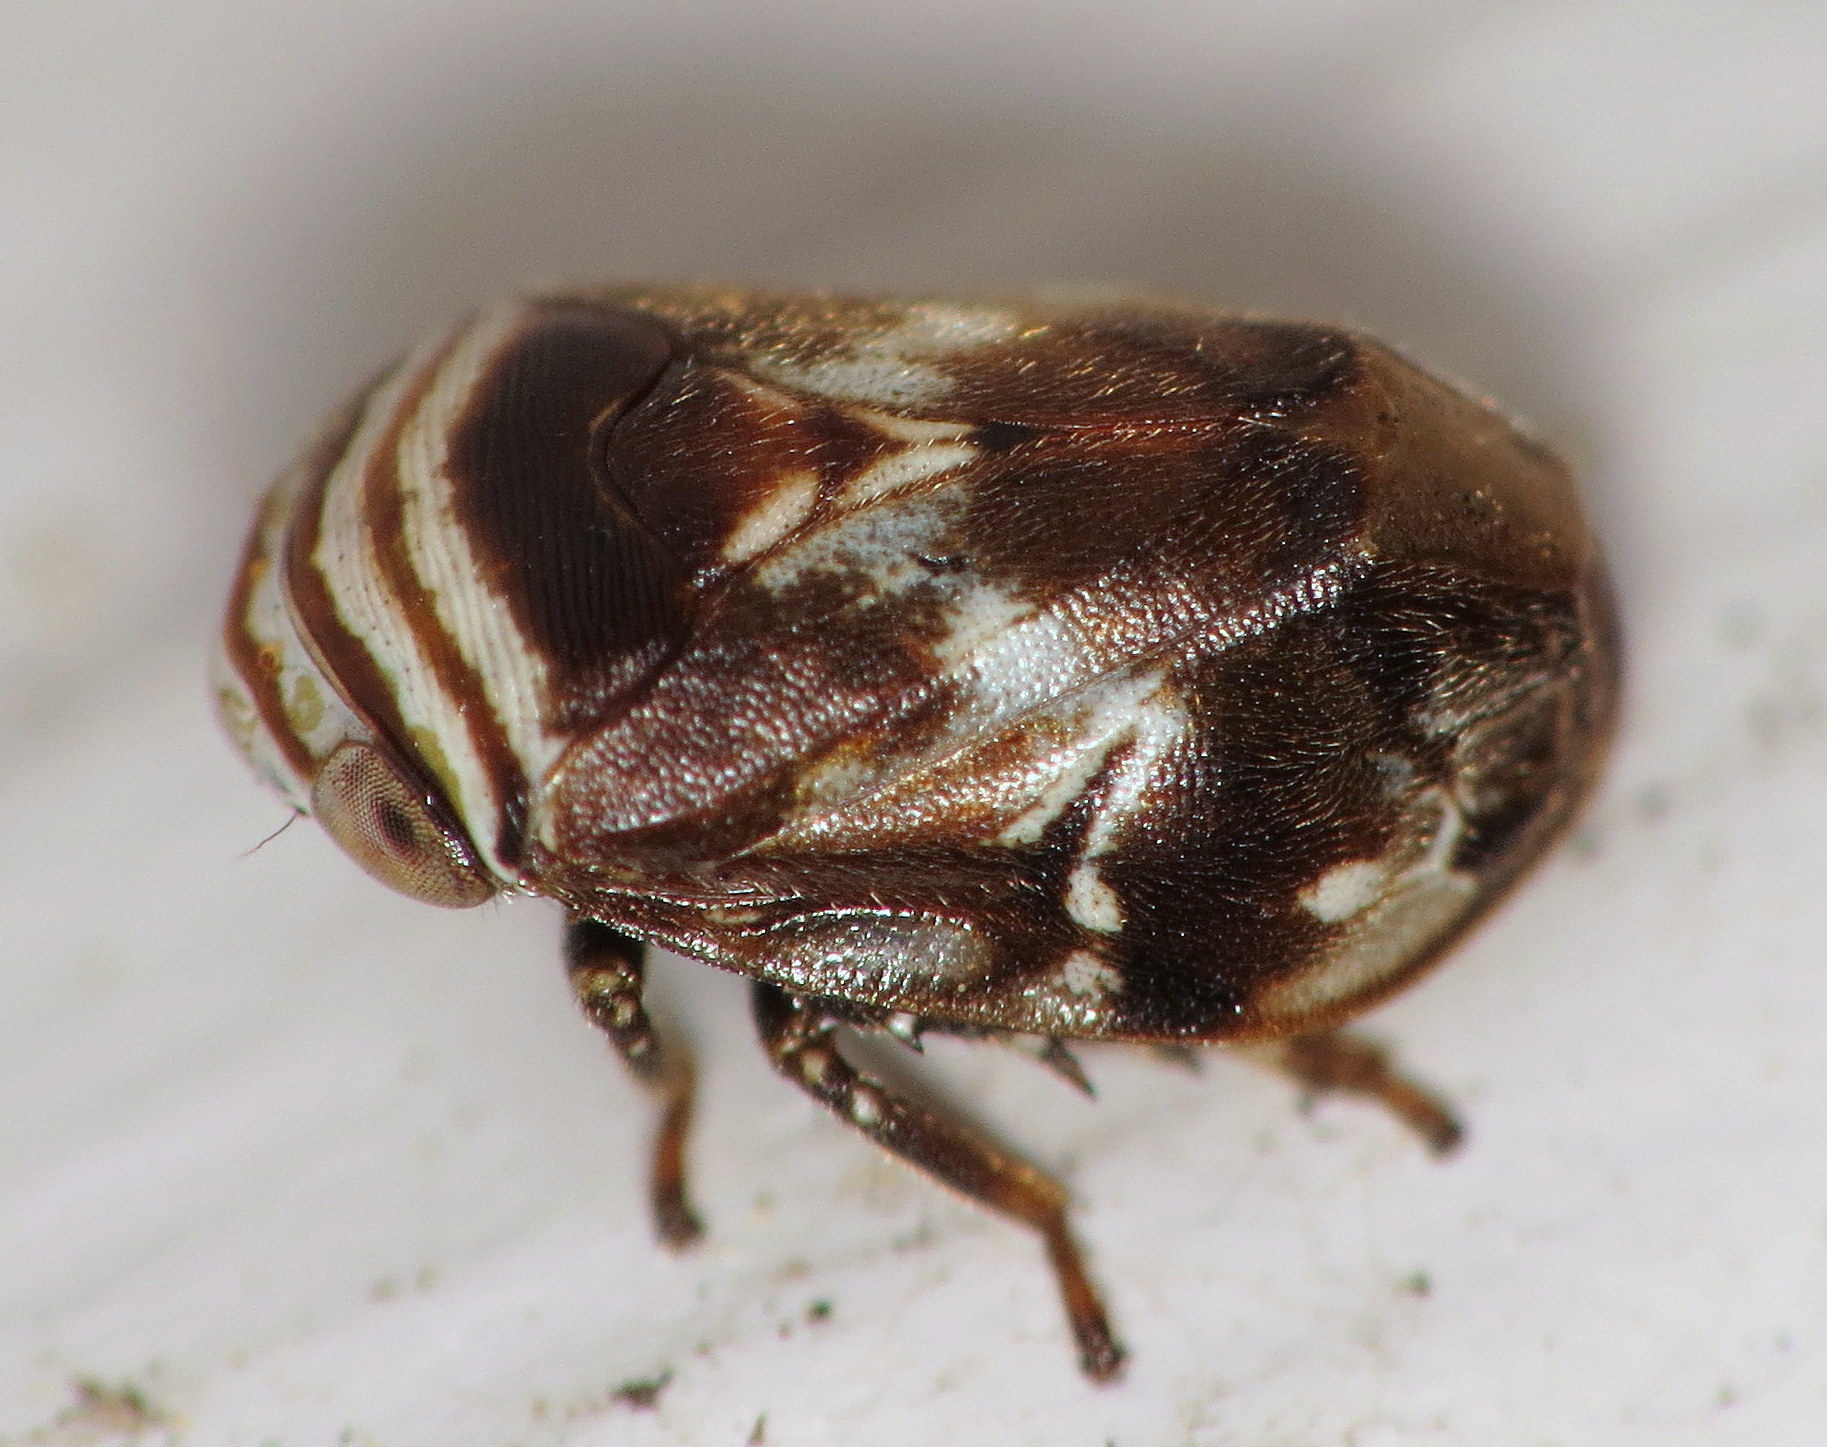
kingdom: Animalia
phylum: Arthropoda
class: Insecta
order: Hemiptera
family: Clastopteridae
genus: Clastoptera
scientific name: Clastoptera obtusa
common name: Alder spittlebug
